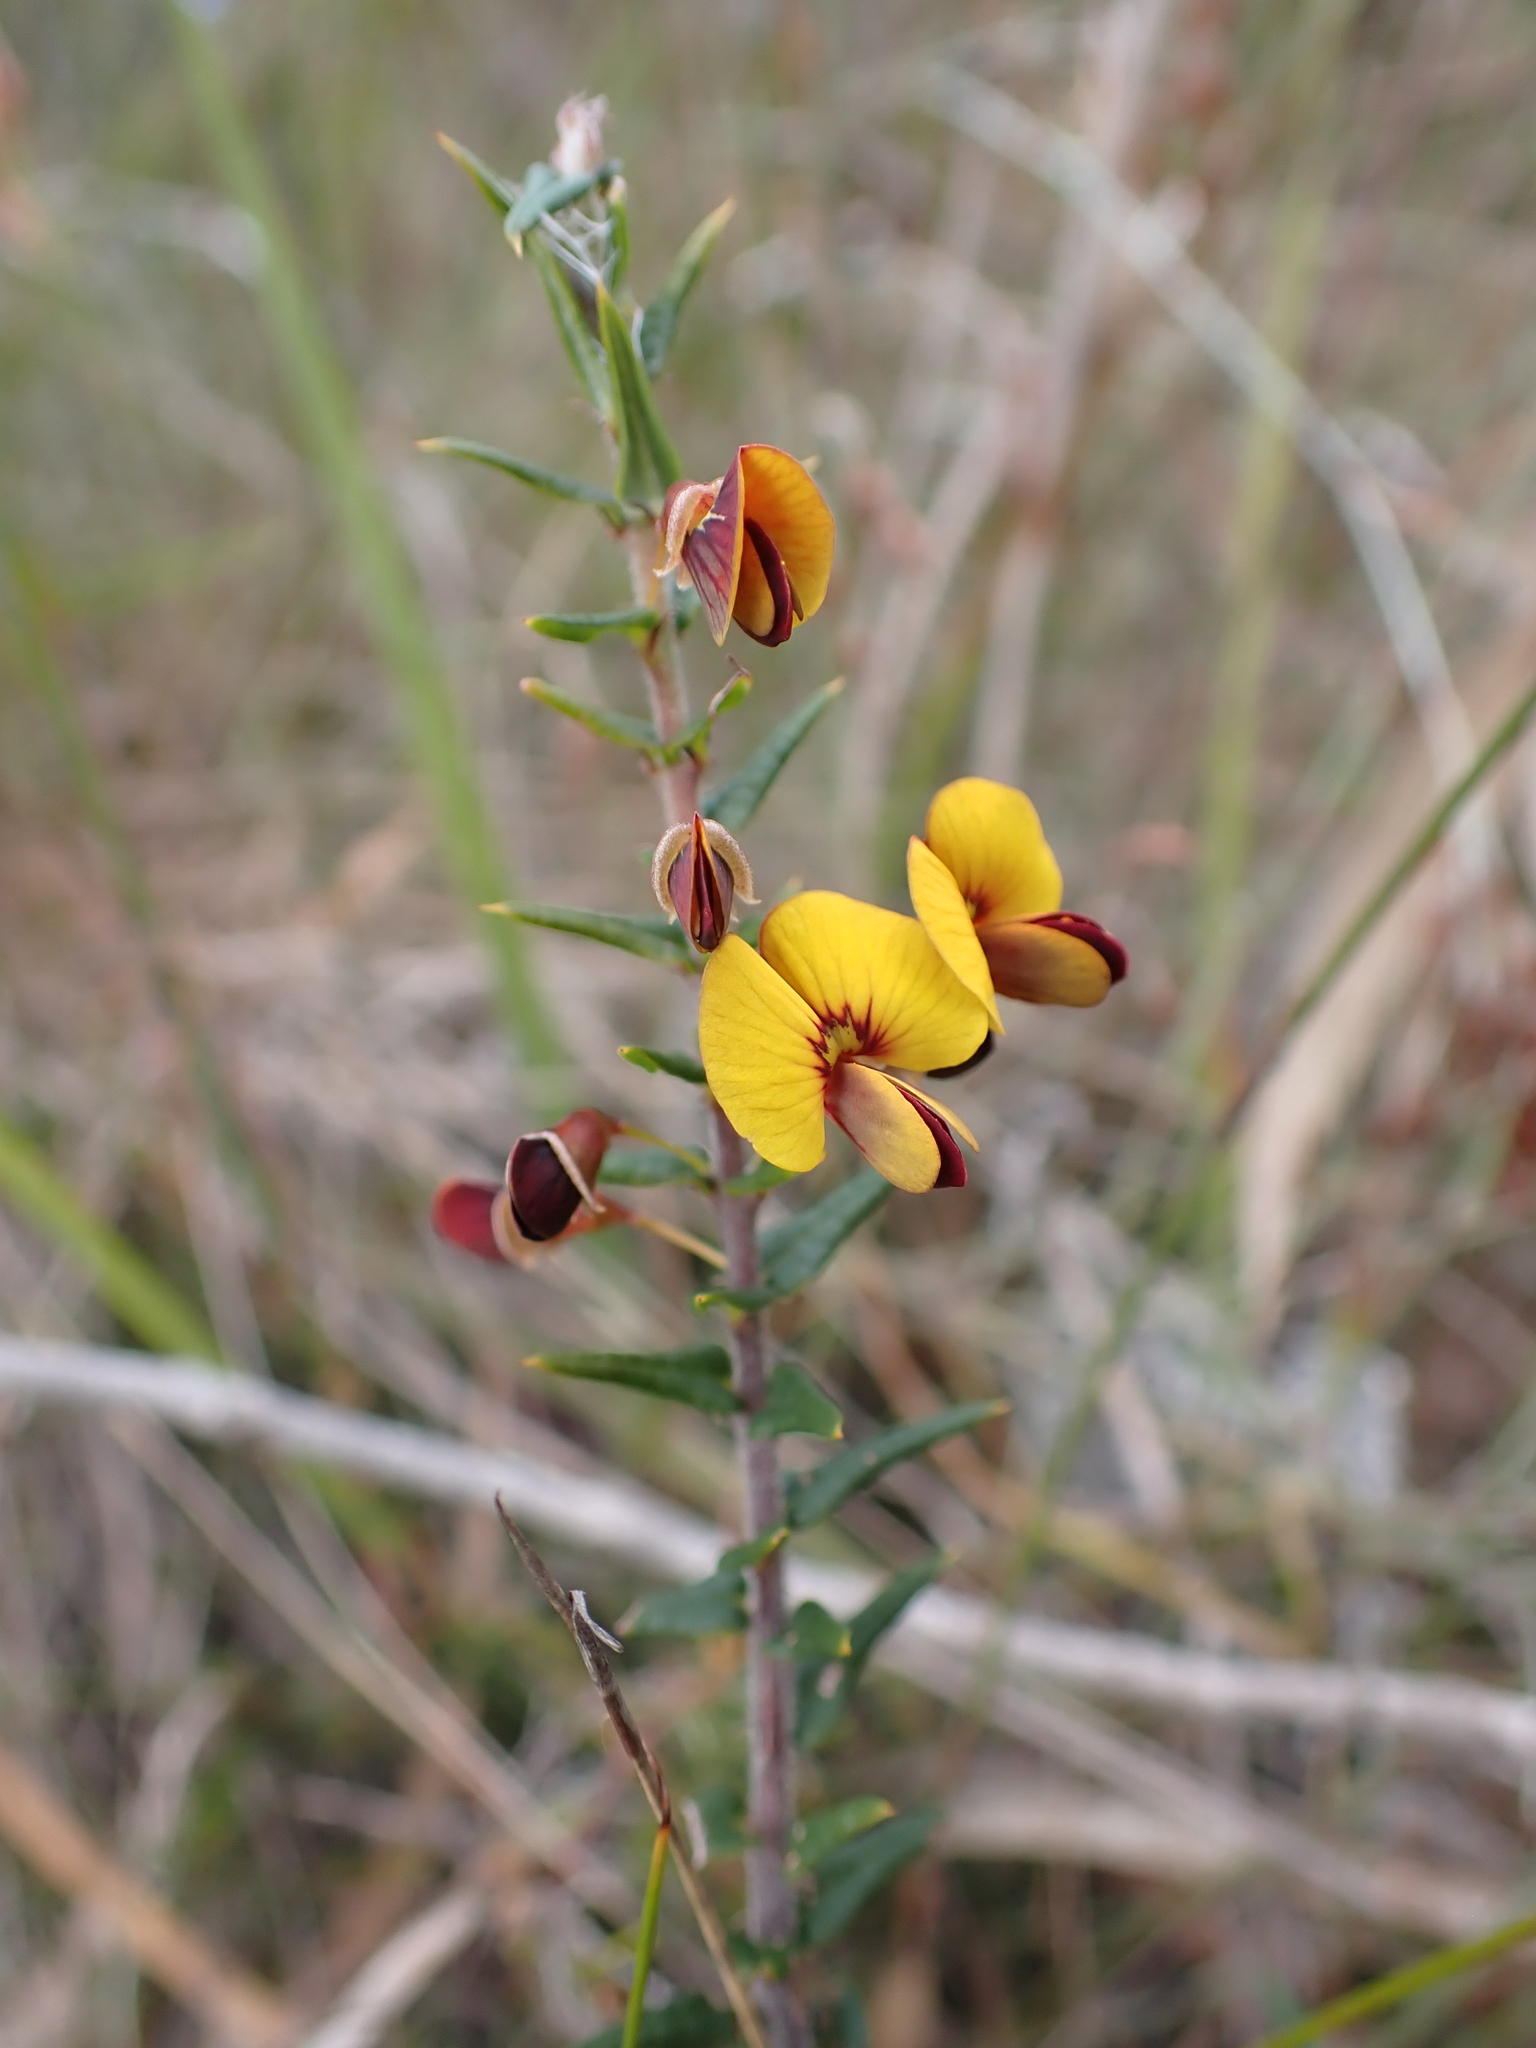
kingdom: Plantae
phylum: Tracheophyta
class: Magnoliopsida
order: Fabales
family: Fabaceae
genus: Bossiaea
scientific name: Bossiaea cinerea
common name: Showy bossiaea
